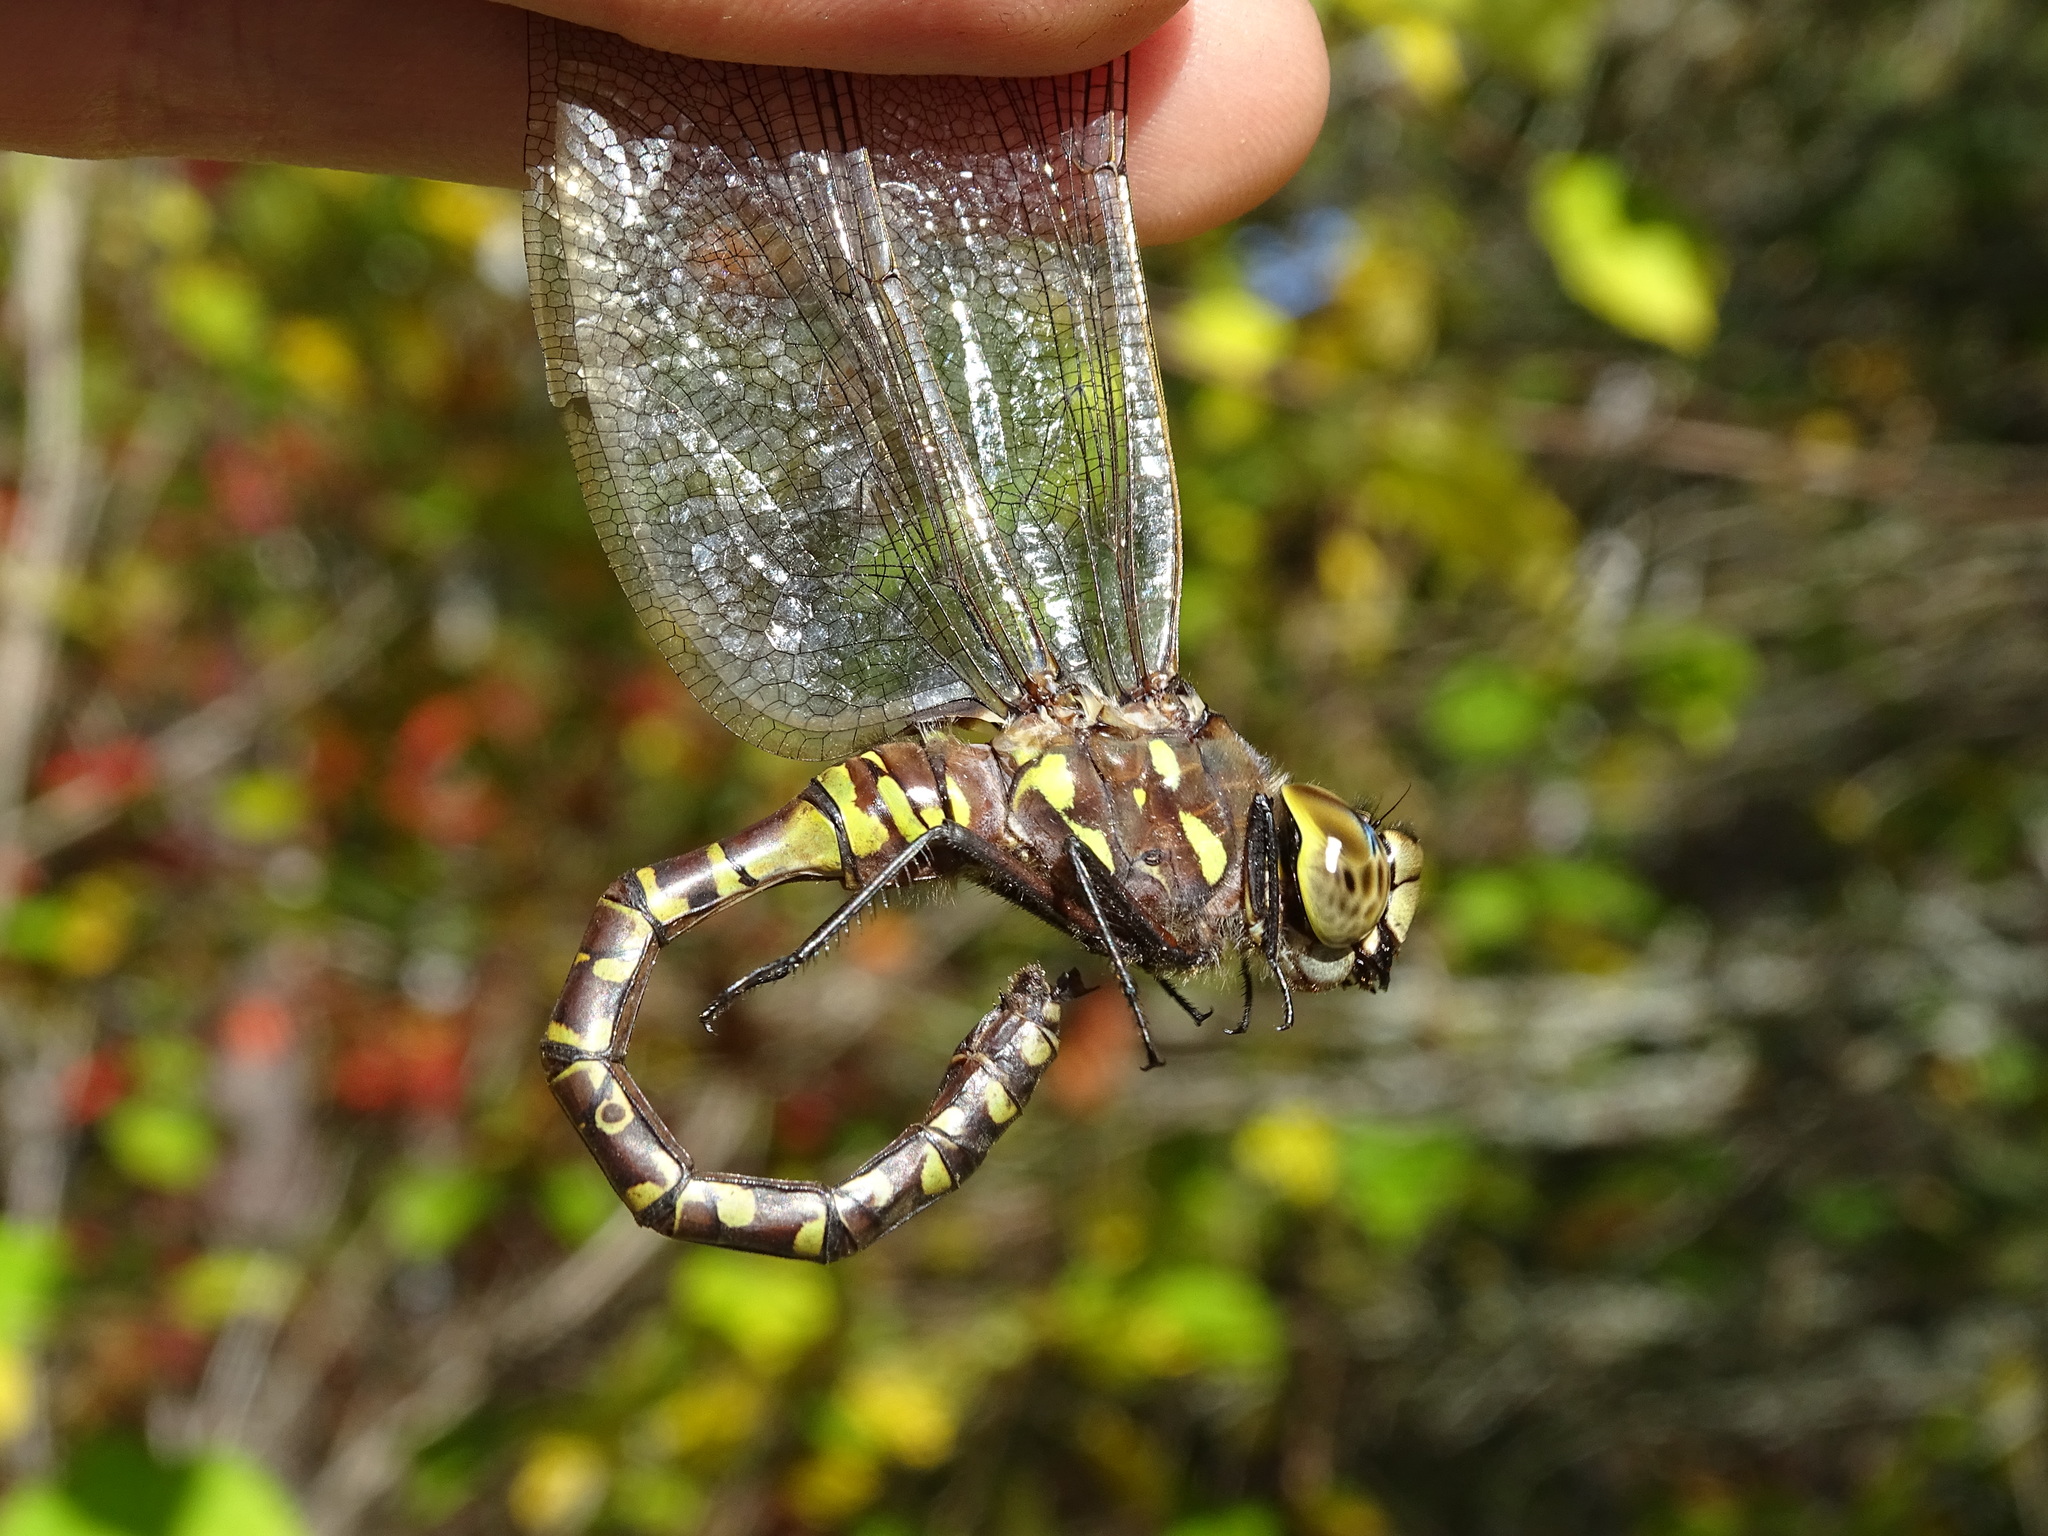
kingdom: Animalia
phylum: Arthropoda
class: Insecta
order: Odonata
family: Aeshnidae
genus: Aeshna
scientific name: Aeshna interrupta
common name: Variable darner
